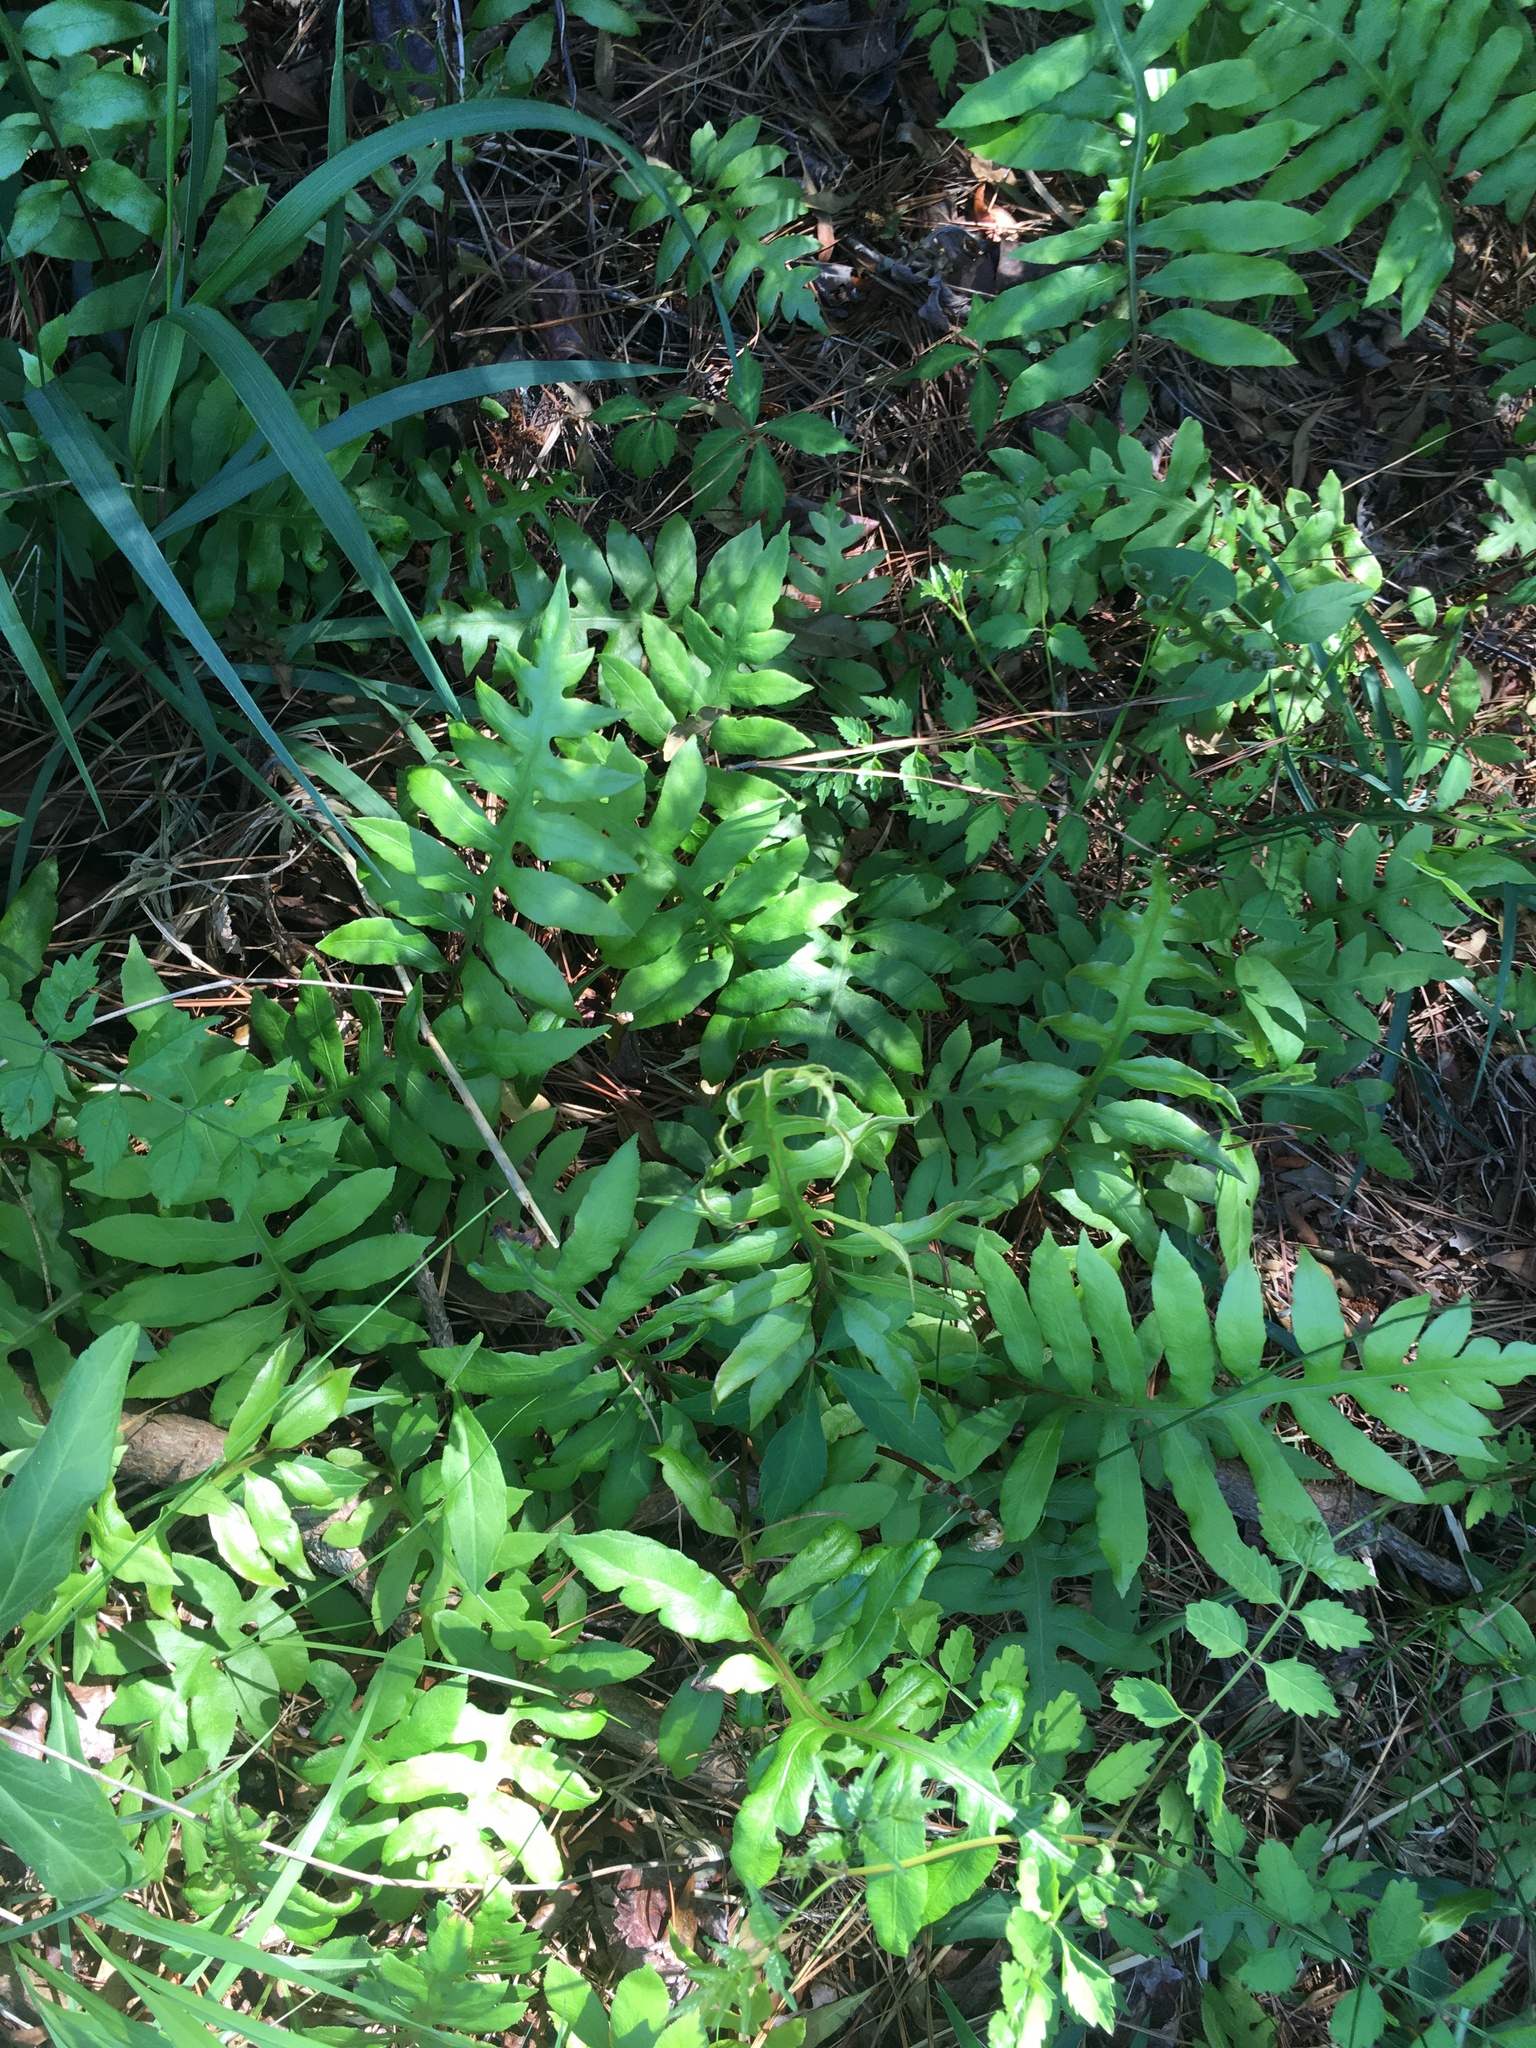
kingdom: Plantae
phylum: Tracheophyta
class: Polypodiopsida
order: Polypodiales
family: Blechnaceae
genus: Lorinseria
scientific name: Lorinseria areolata
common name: Dwarf chain fern
